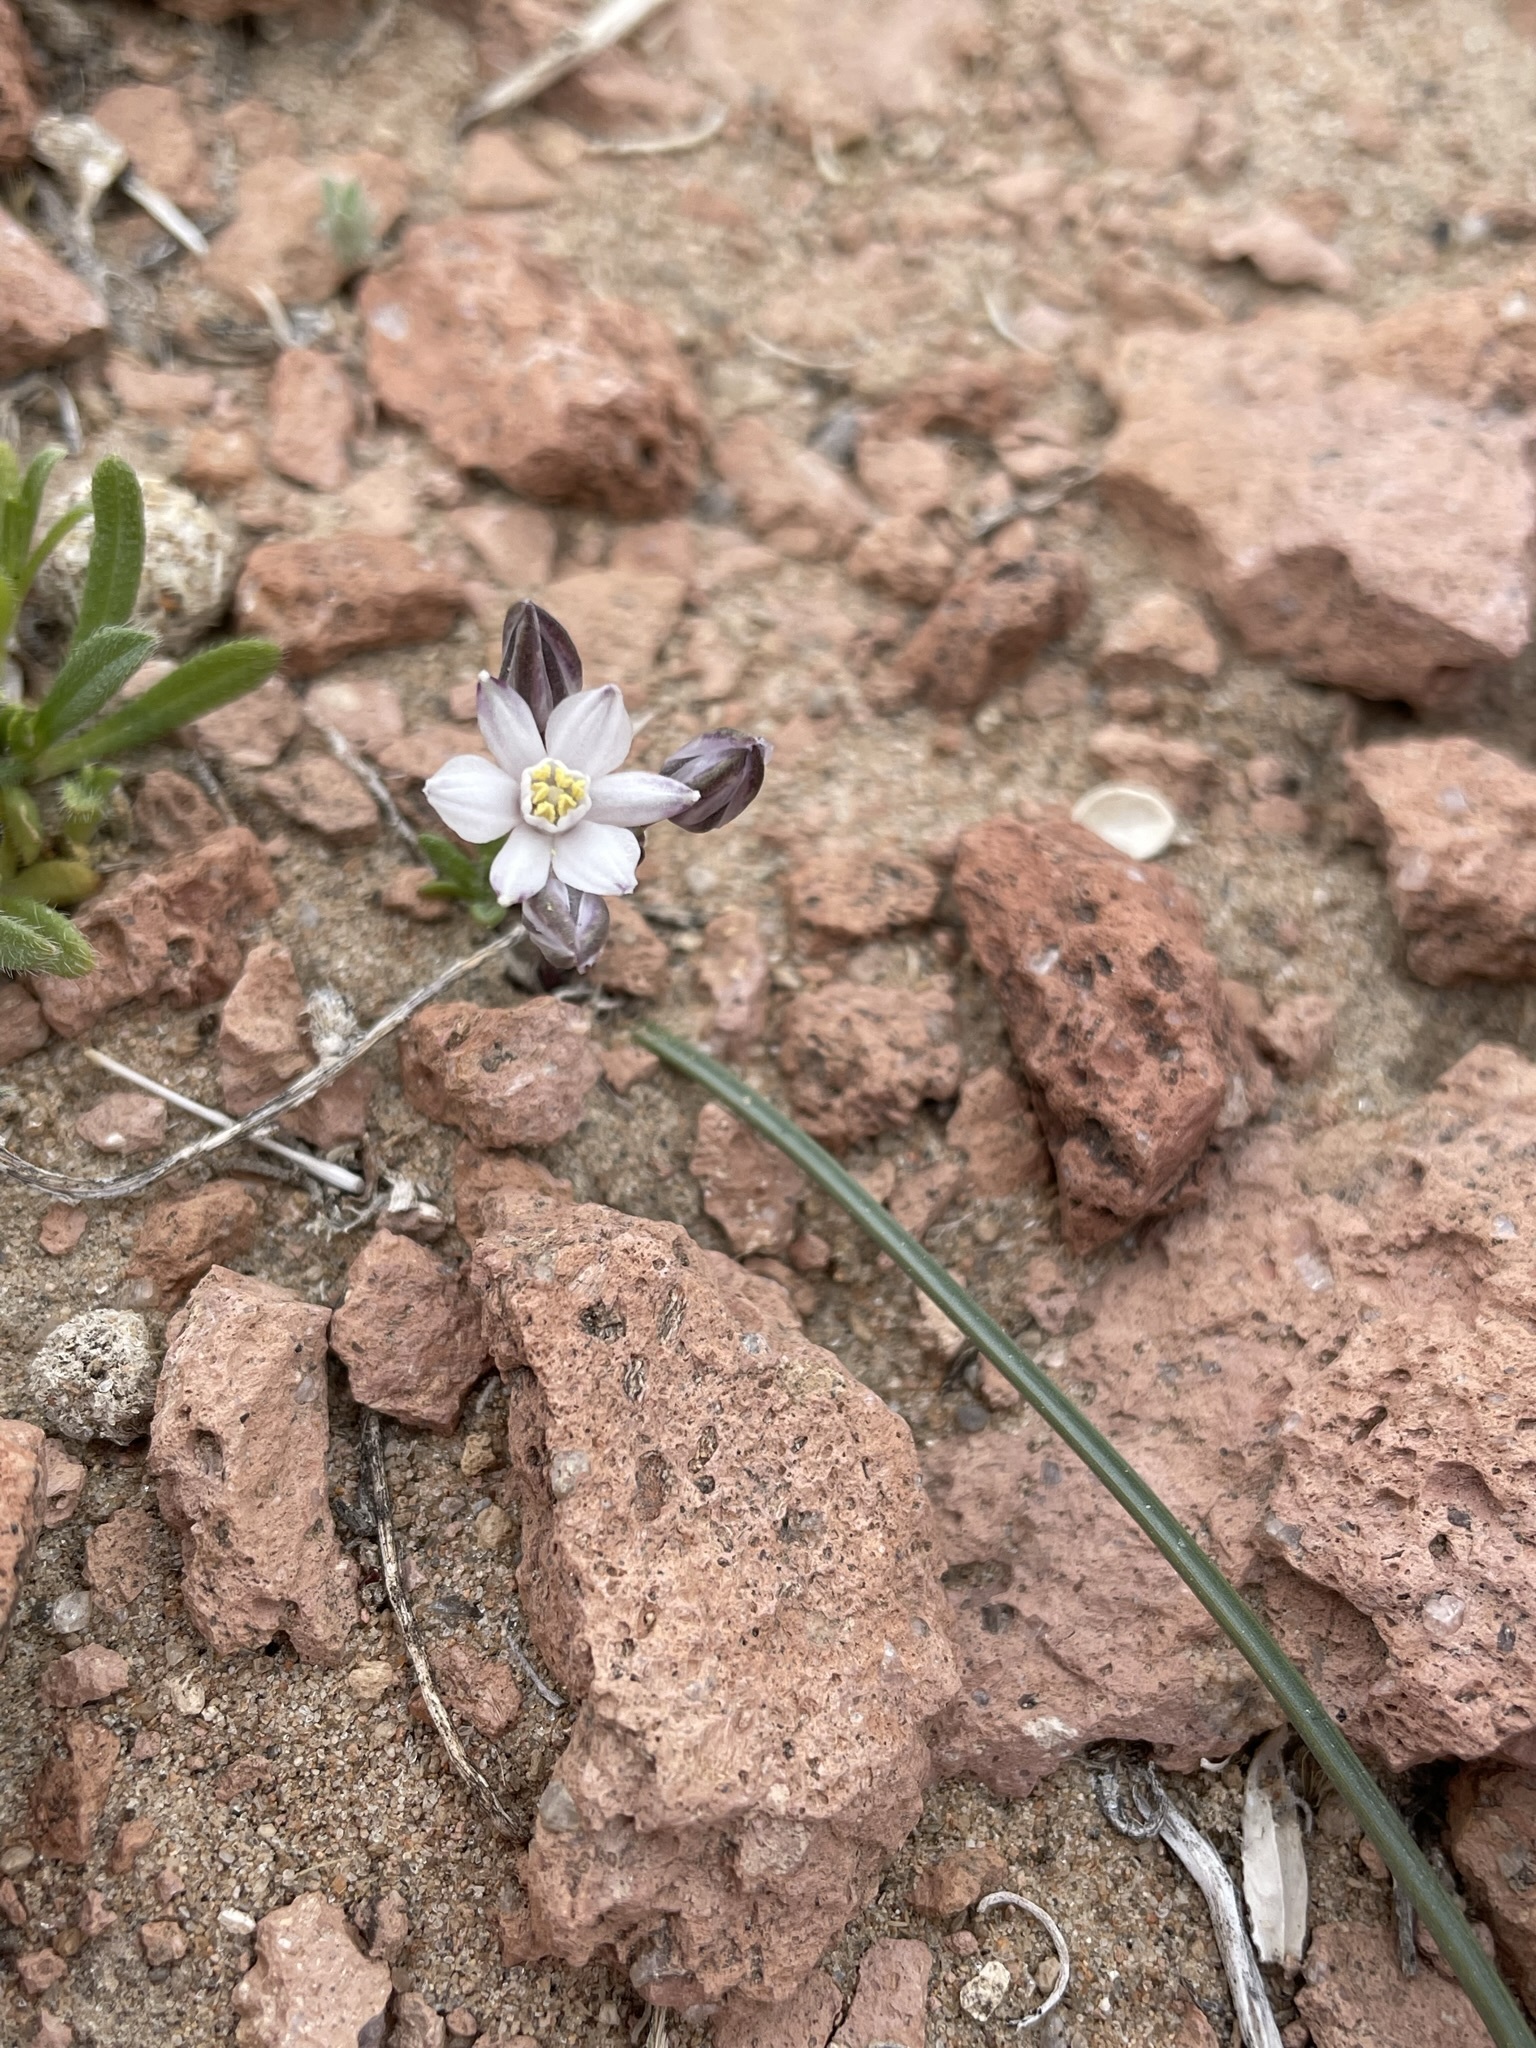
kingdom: Plantae
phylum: Tracheophyta
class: Liliopsida
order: Asparagales
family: Asparagaceae
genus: Muilla
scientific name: Muilla coronata
